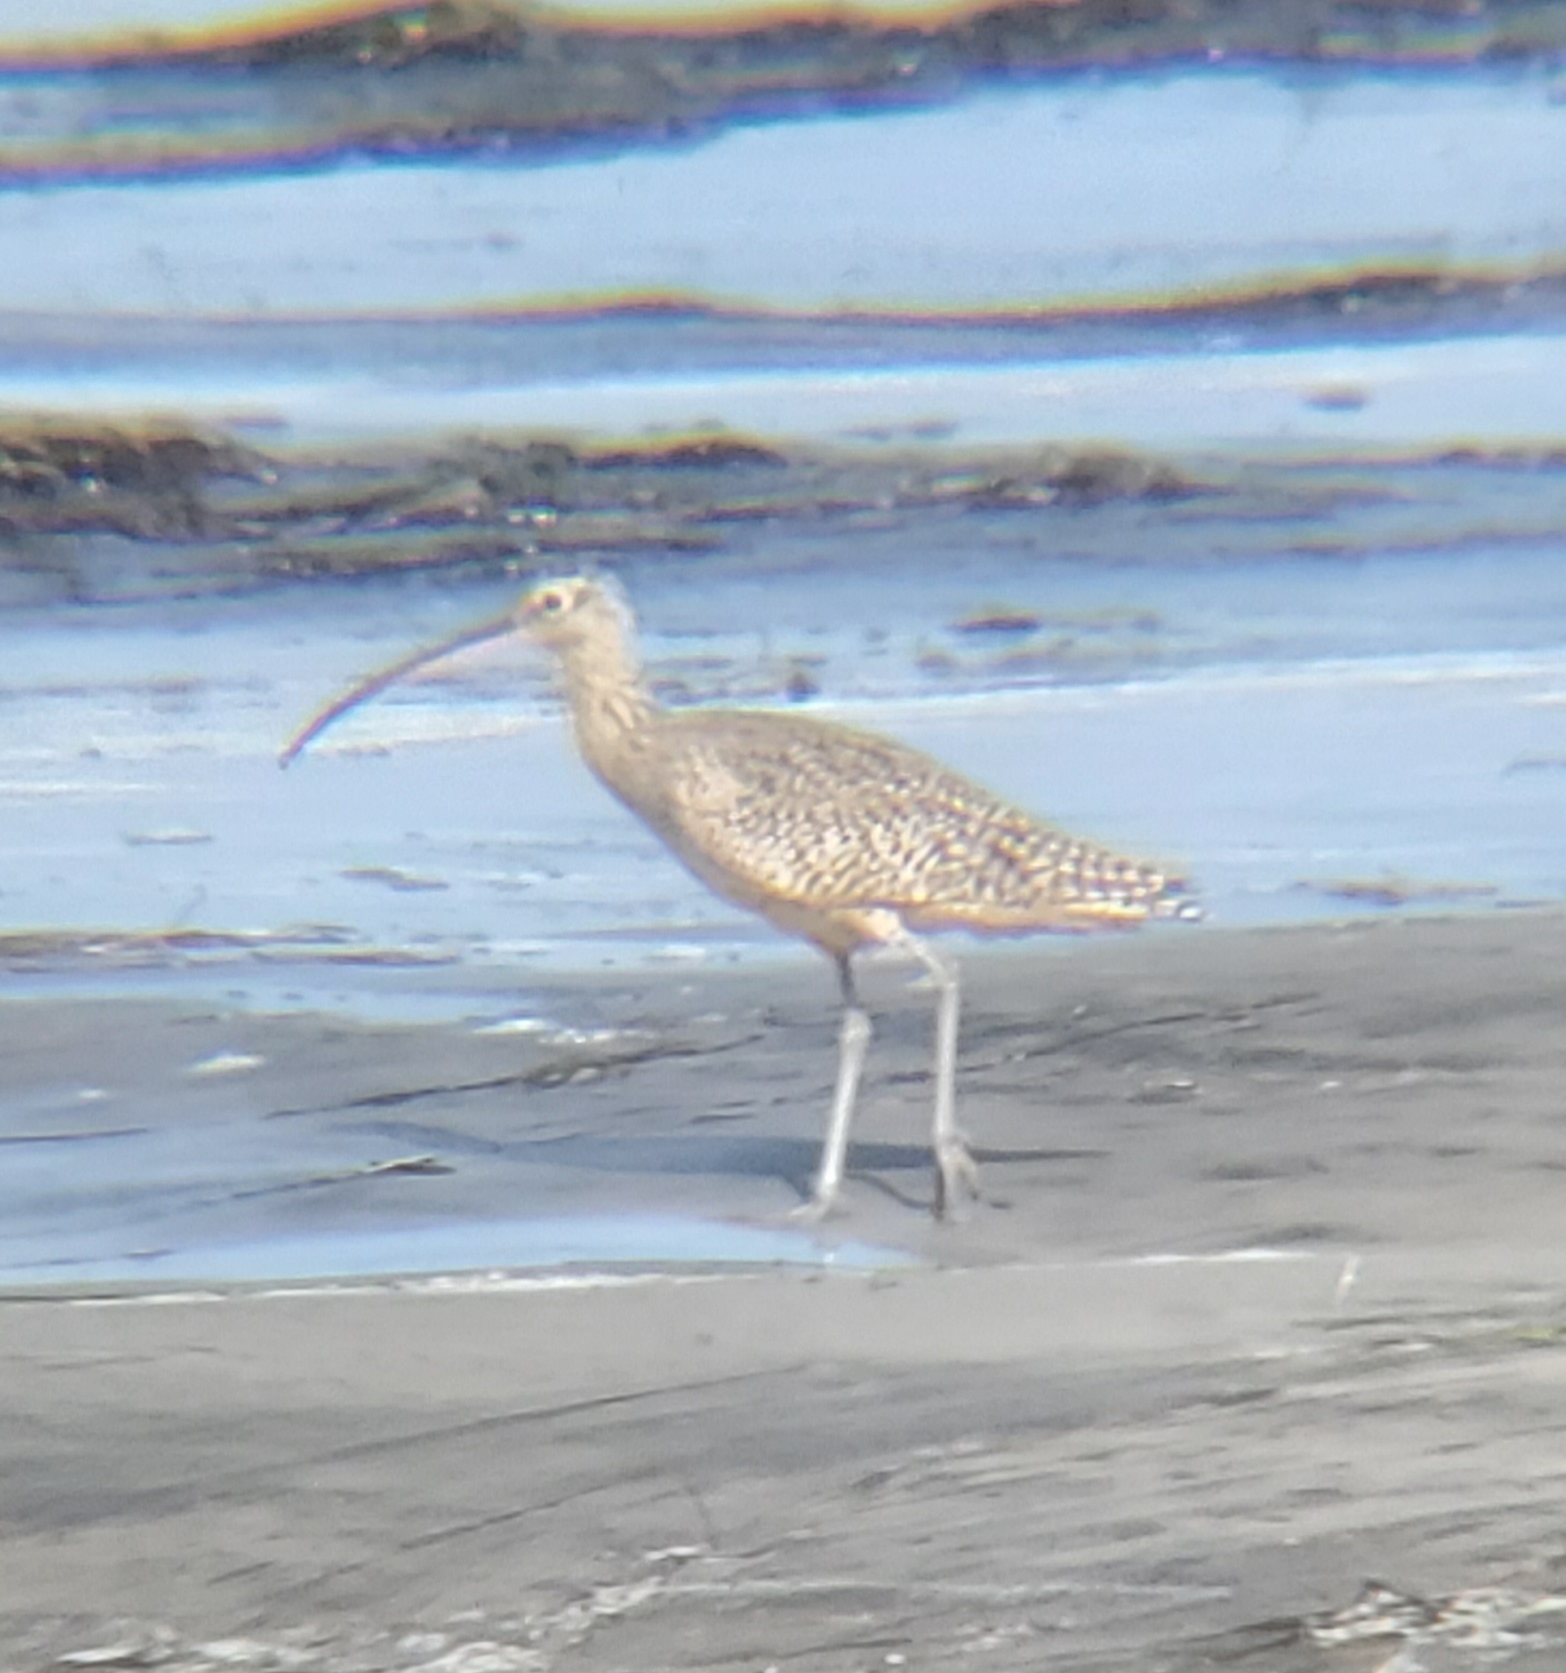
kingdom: Animalia
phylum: Chordata
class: Aves
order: Charadriiformes
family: Scolopacidae
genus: Numenius
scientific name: Numenius americanus
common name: Long-billed curlew
